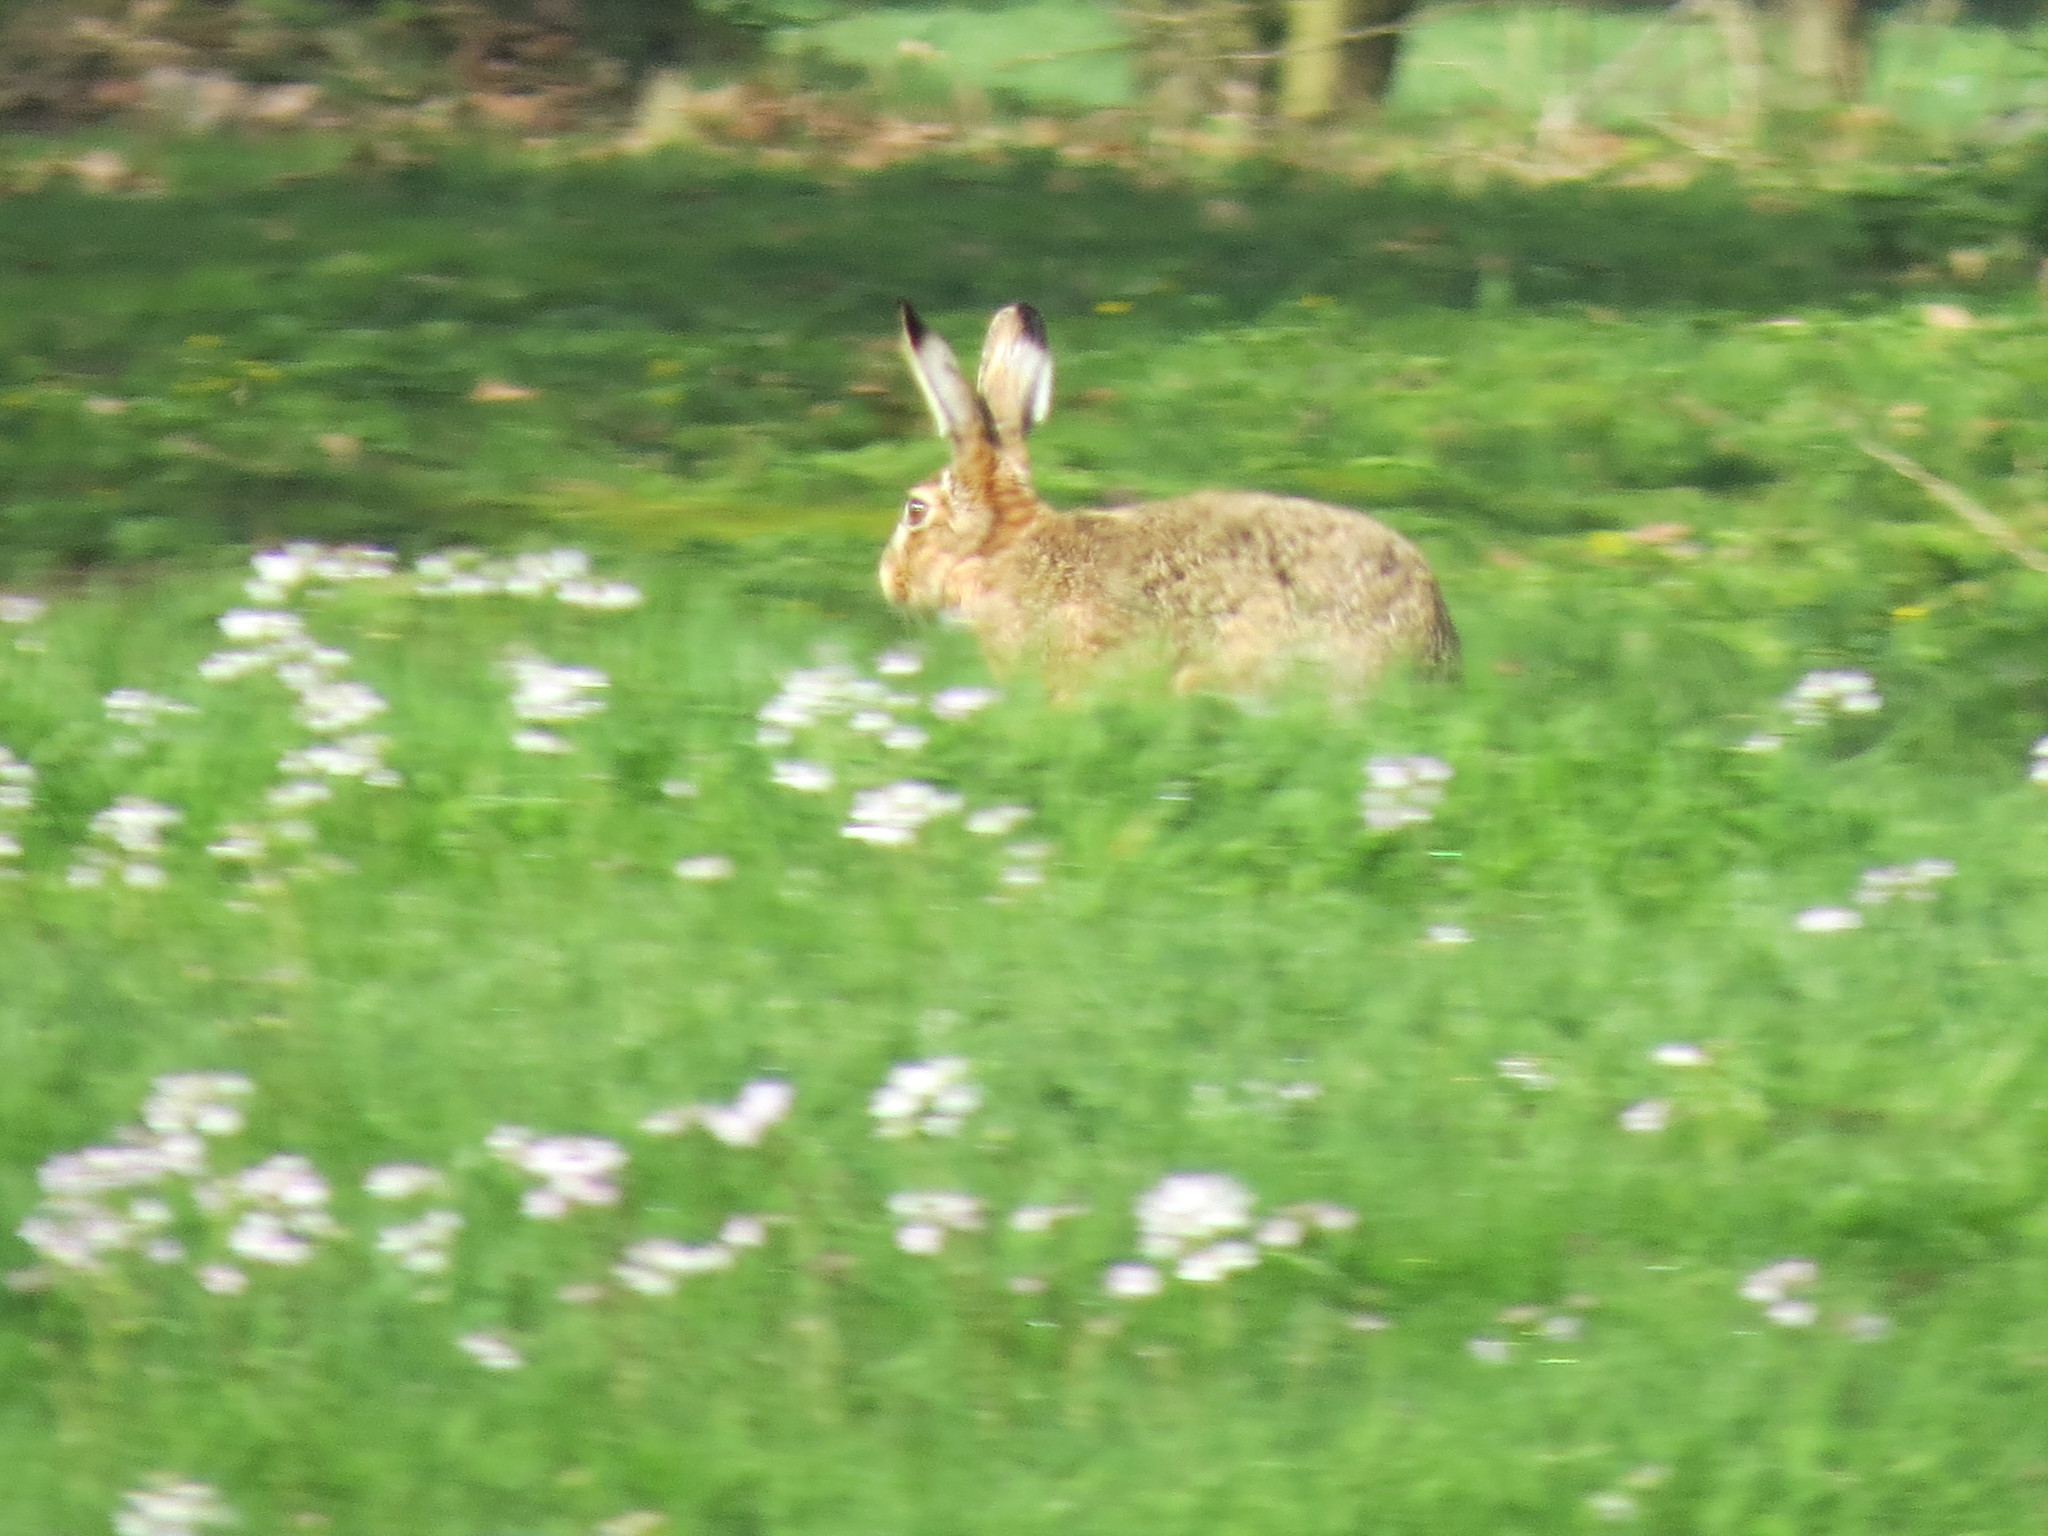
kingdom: Animalia
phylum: Chordata
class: Mammalia
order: Lagomorpha
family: Leporidae
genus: Lepus
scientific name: Lepus europaeus
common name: European hare
